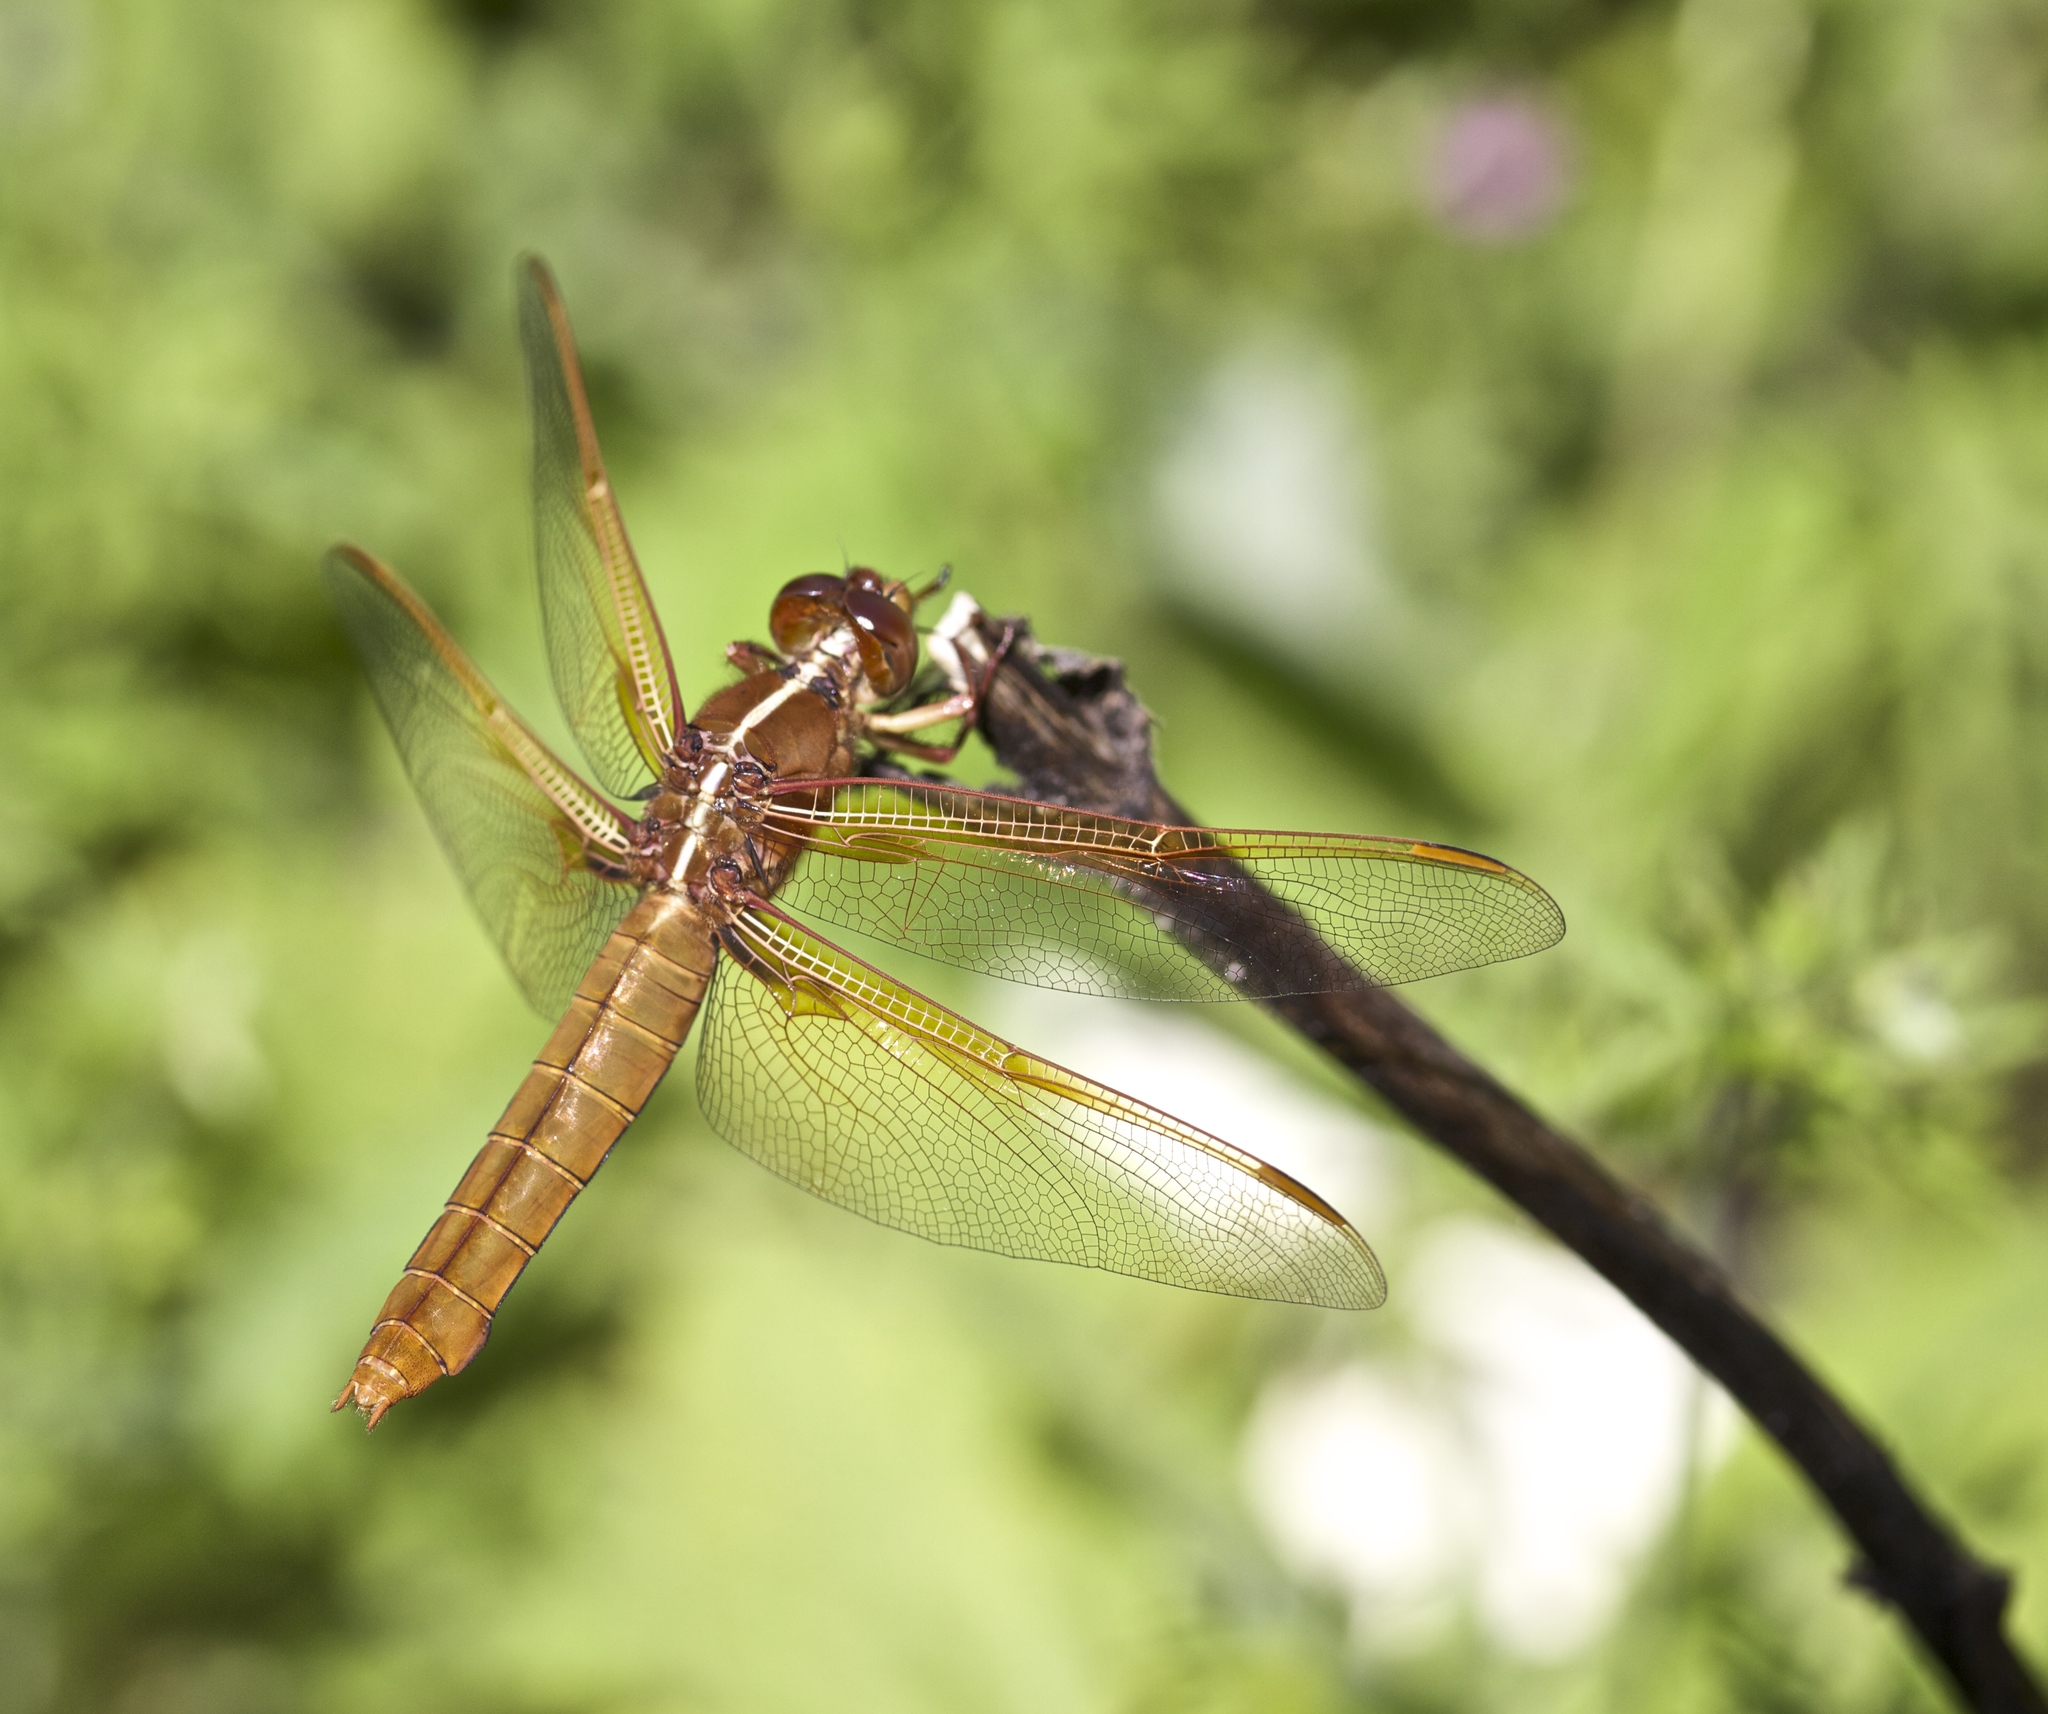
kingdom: Animalia
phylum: Arthropoda
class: Insecta
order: Odonata
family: Libellulidae
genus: Libellula
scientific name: Libellula saturata
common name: Flame skimmer
